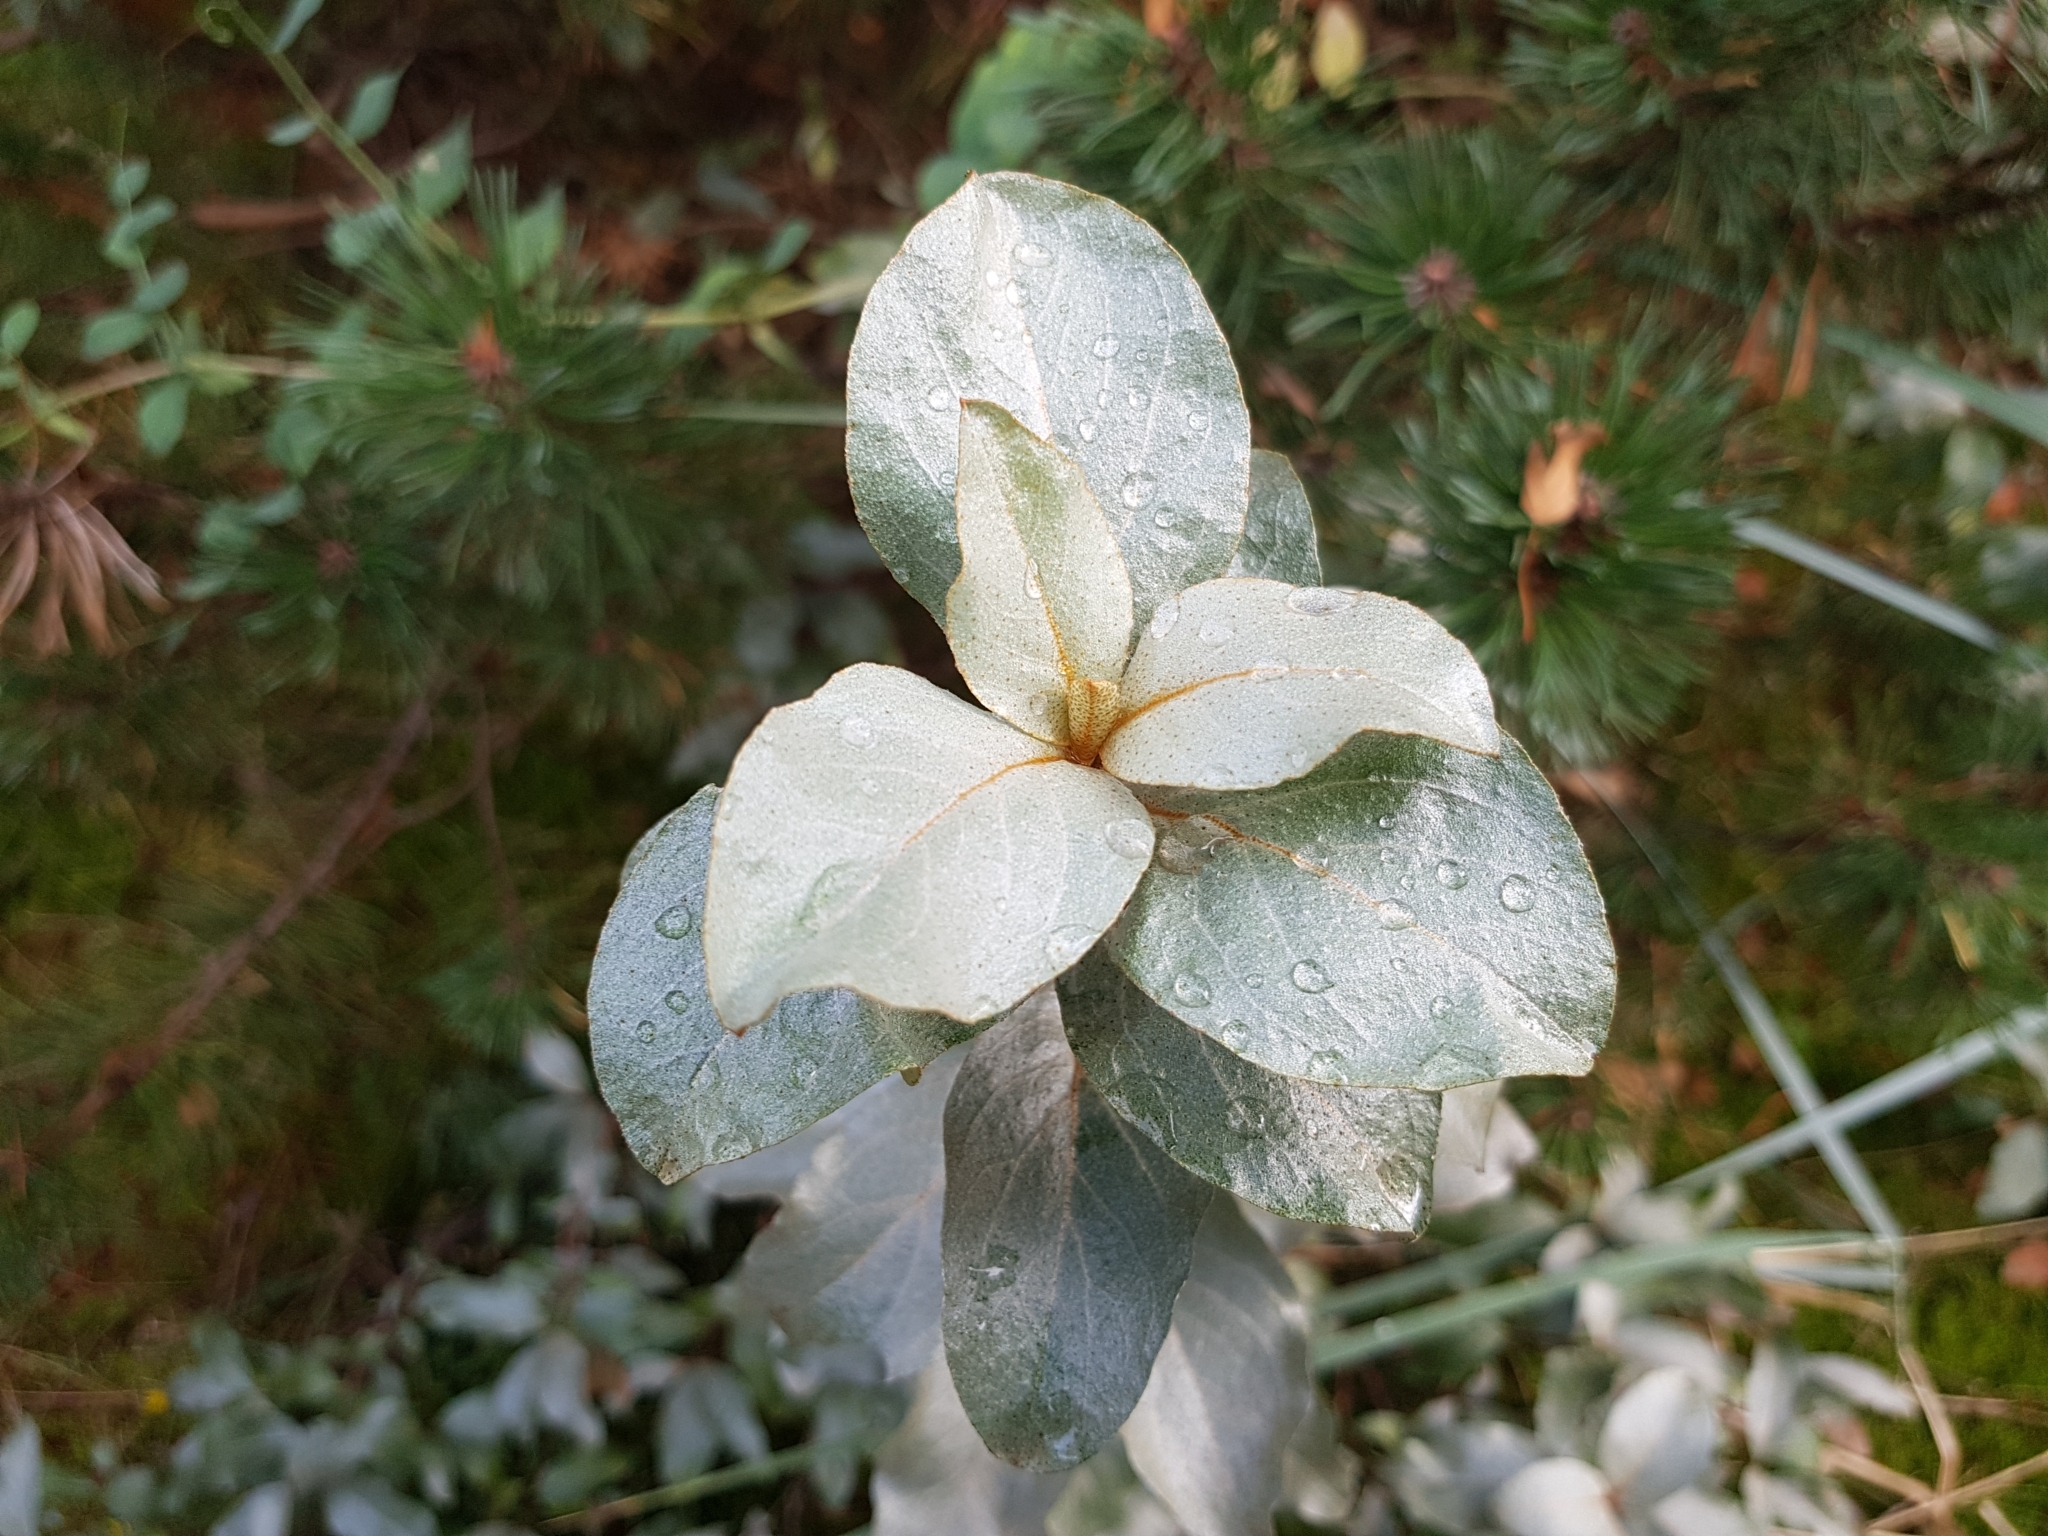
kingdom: Plantae
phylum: Tracheophyta
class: Magnoliopsida
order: Rosales
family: Elaeagnaceae
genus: Elaeagnus
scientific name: Elaeagnus commutata
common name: Silverberry
